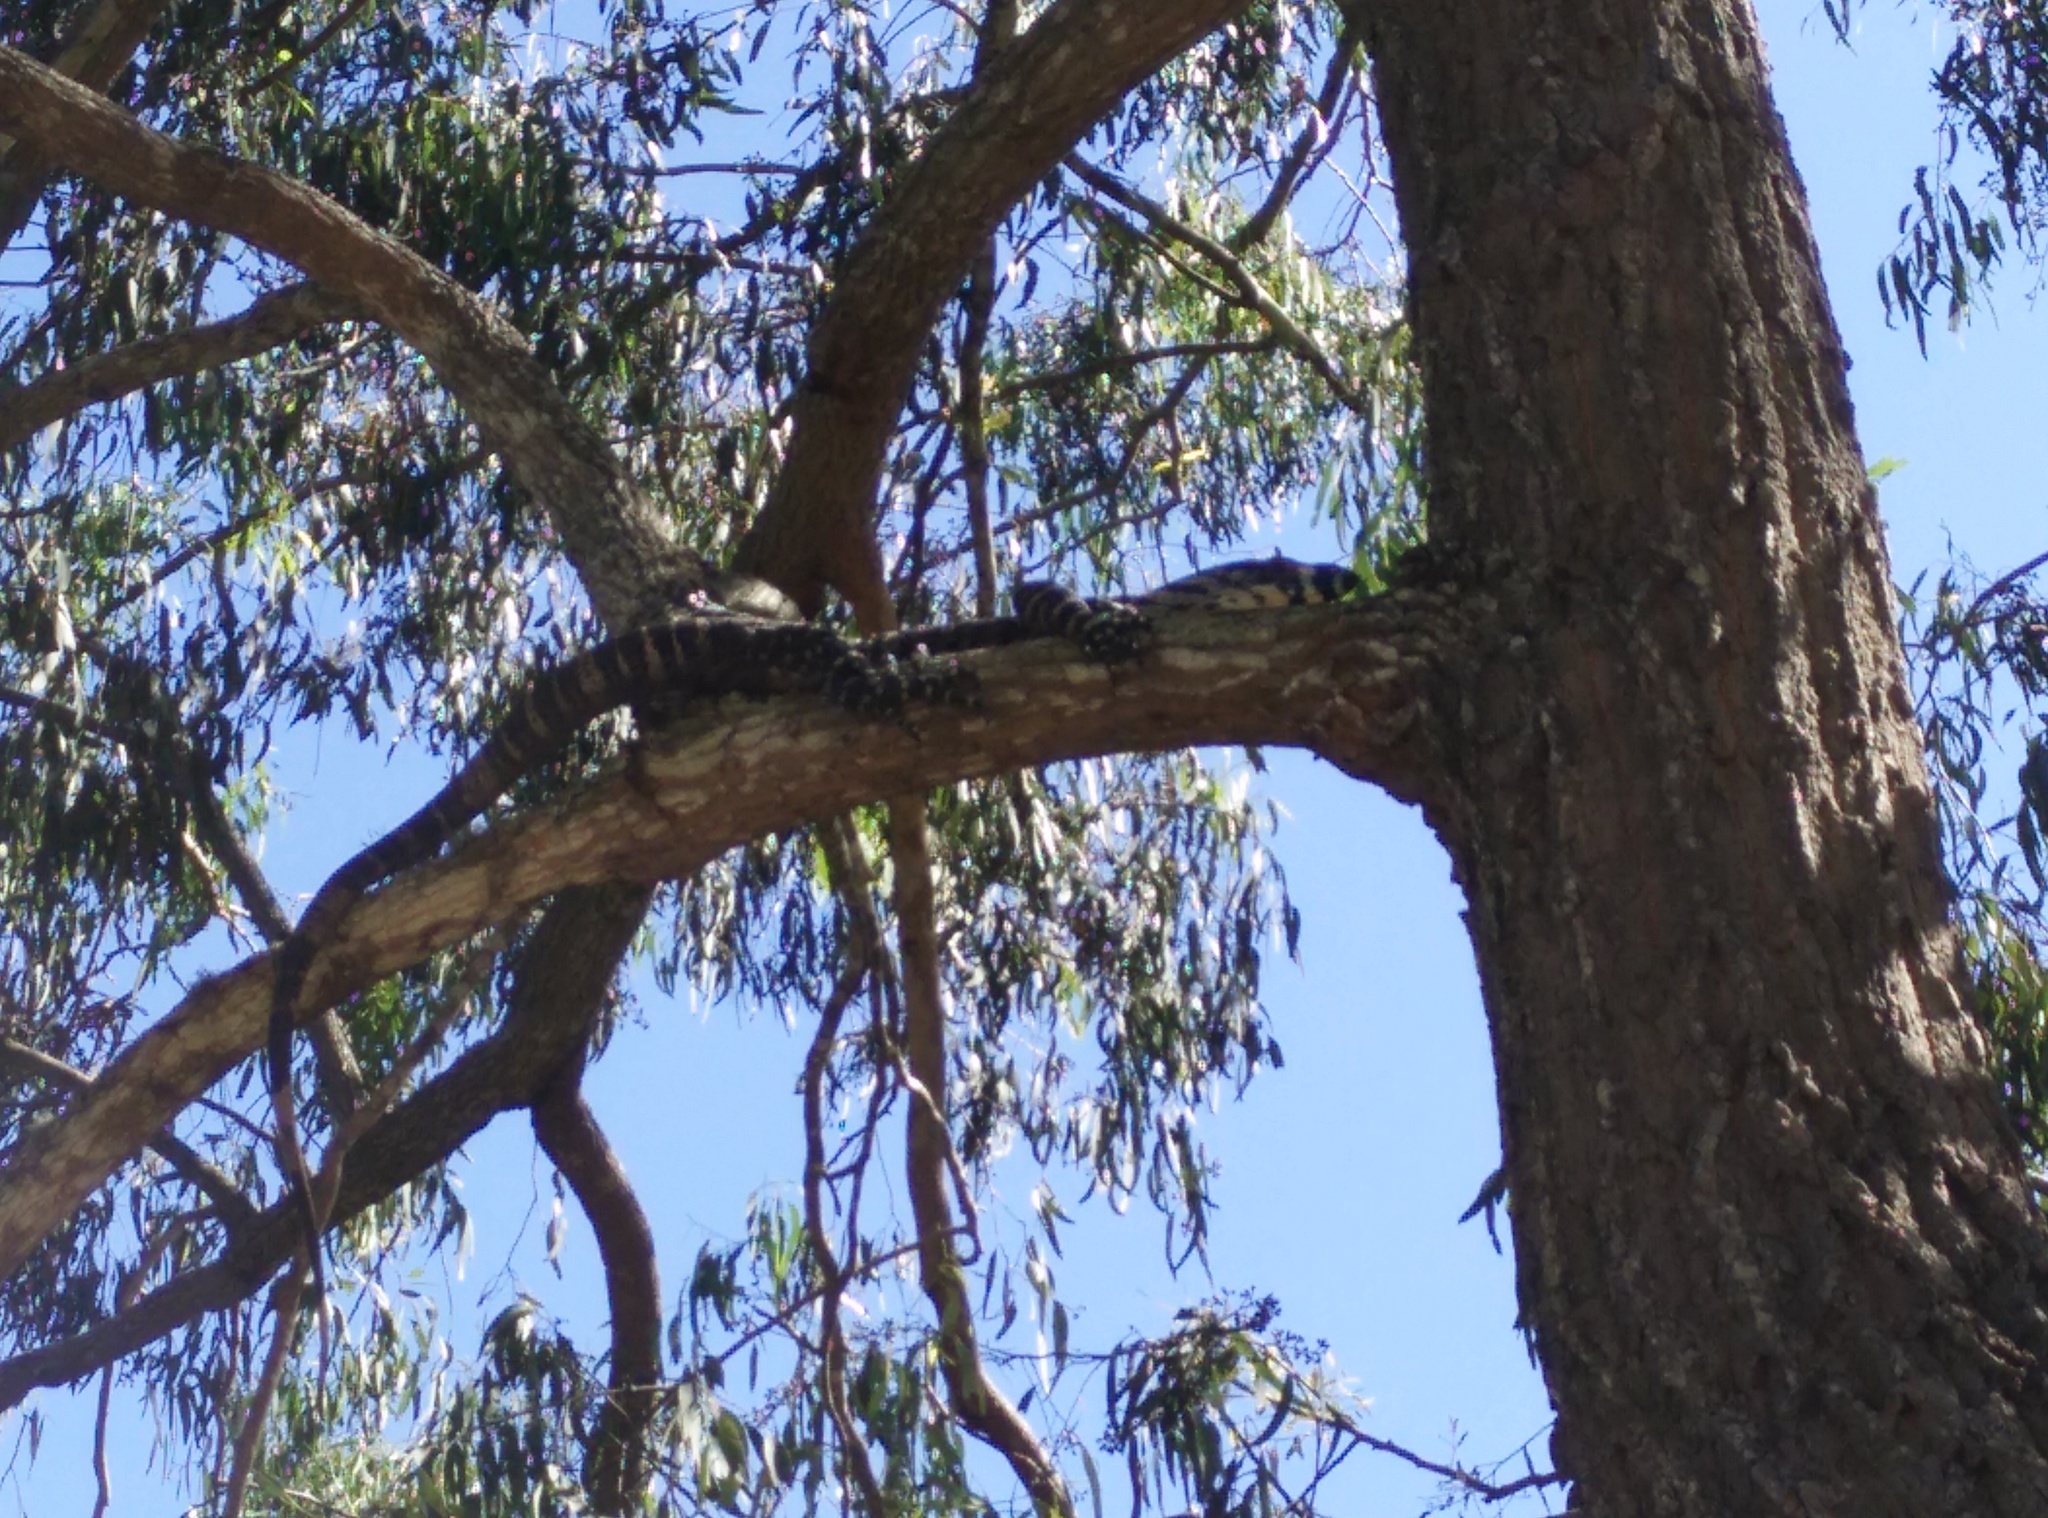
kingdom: Animalia
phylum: Chordata
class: Squamata
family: Varanidae
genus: Varanus
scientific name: Varanus varius
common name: Lace monitor
